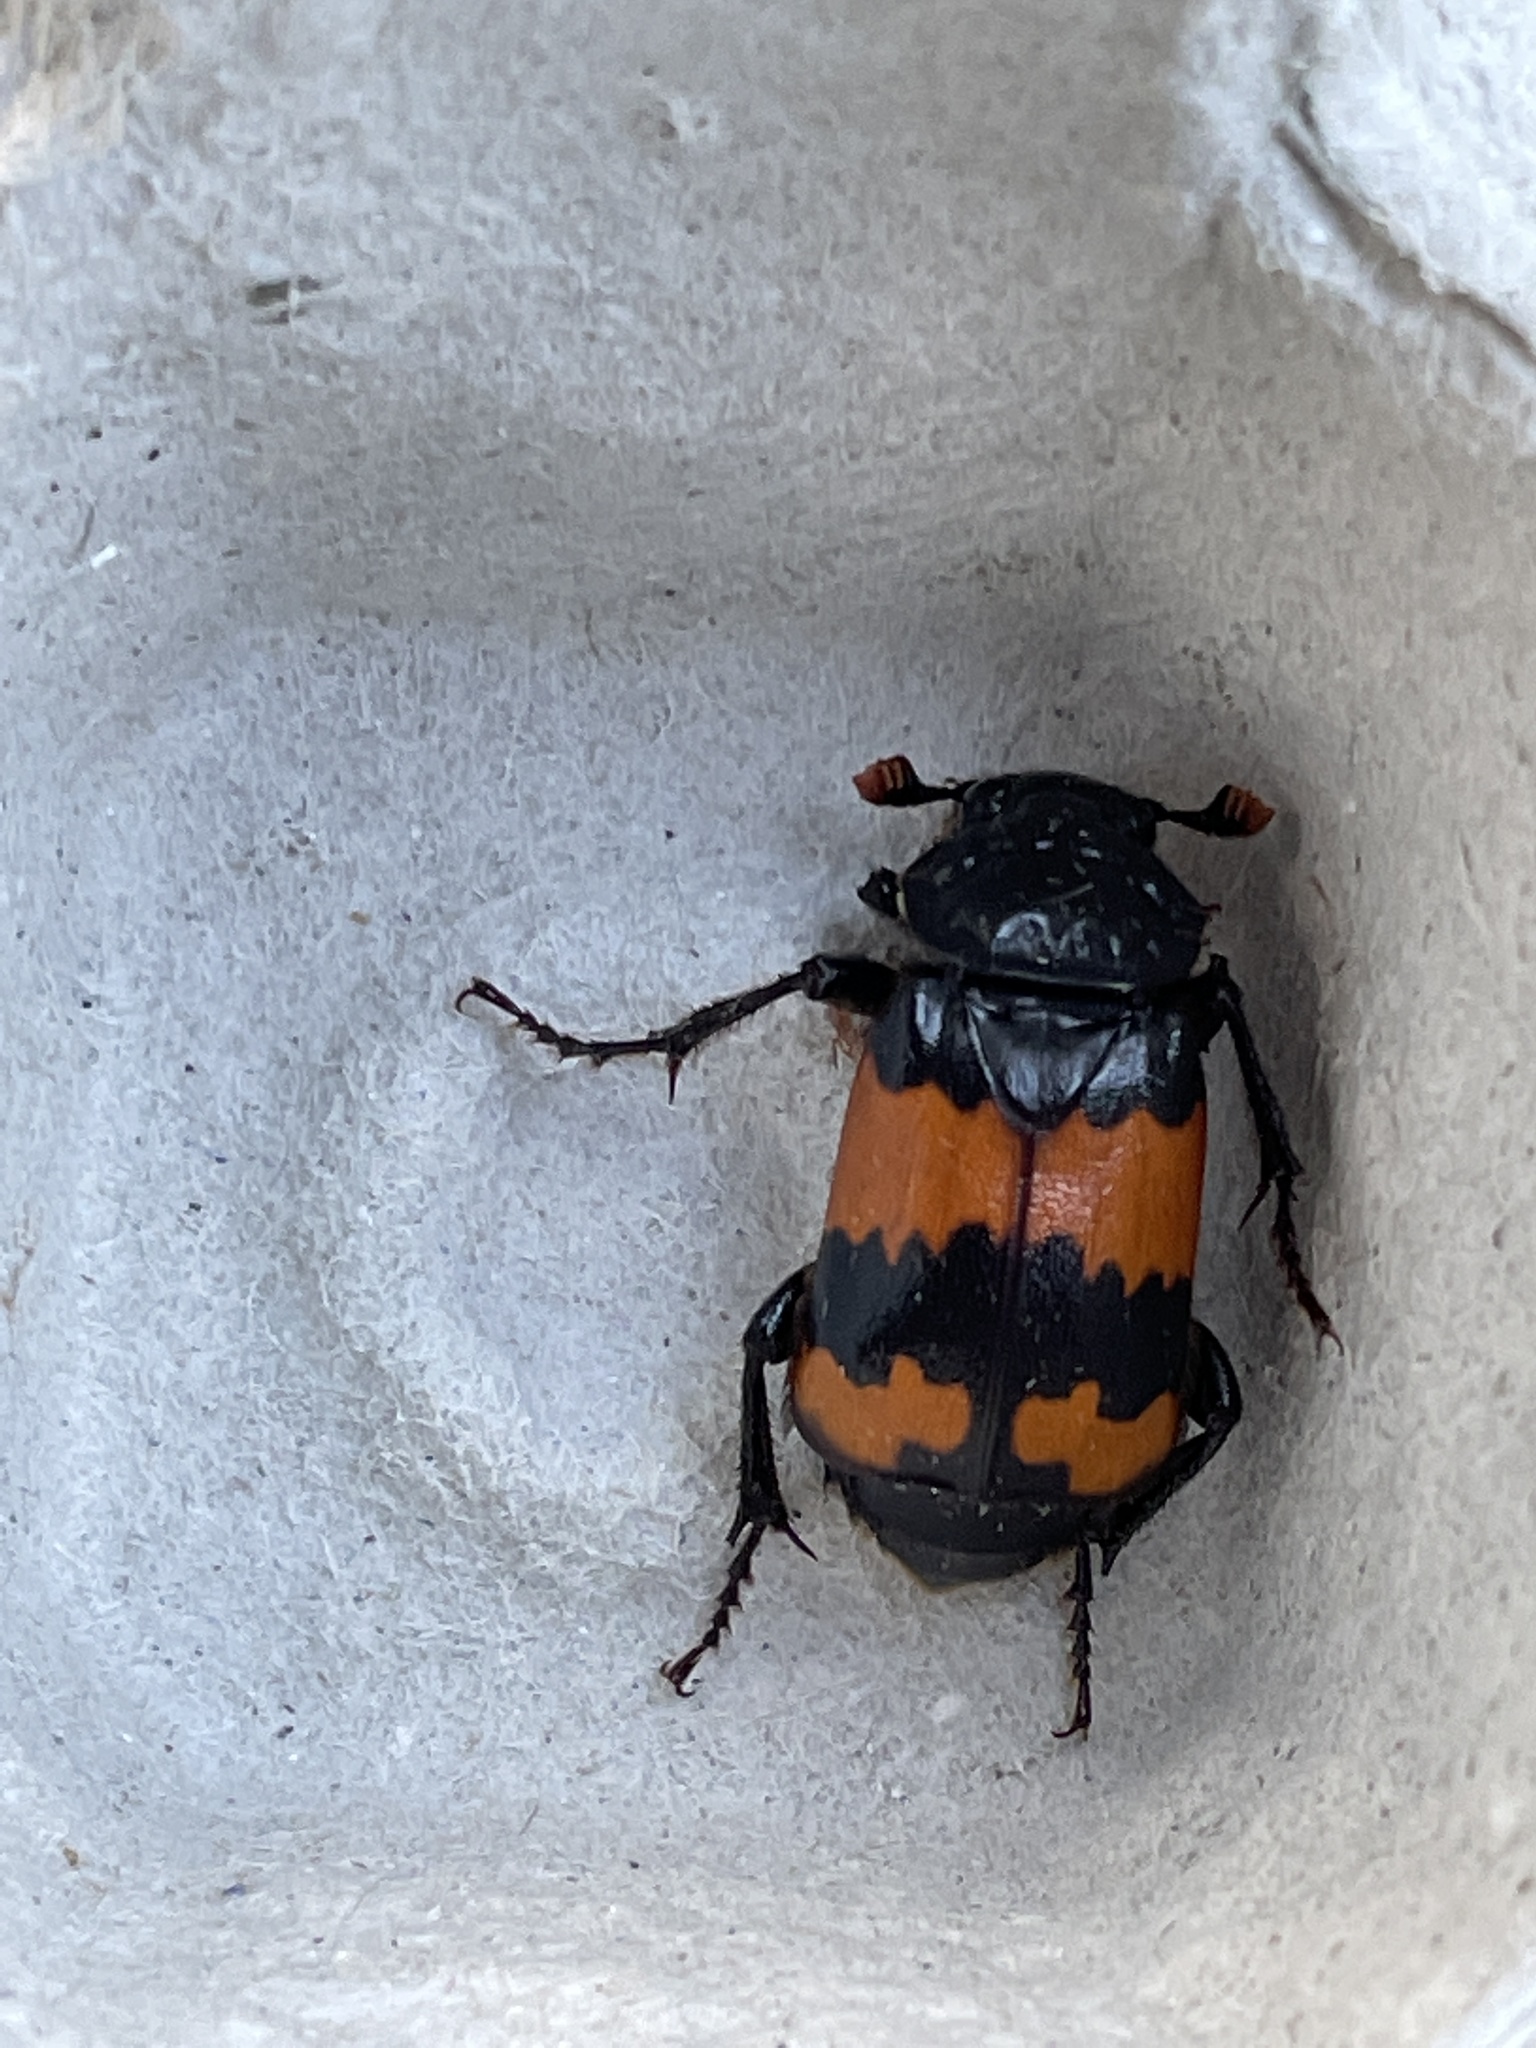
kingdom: Animalia
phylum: Arthropoda
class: Insecta
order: Coleoptera
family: Staphylinidae
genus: Nicrophorus
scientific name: Nicrophorus investigator
